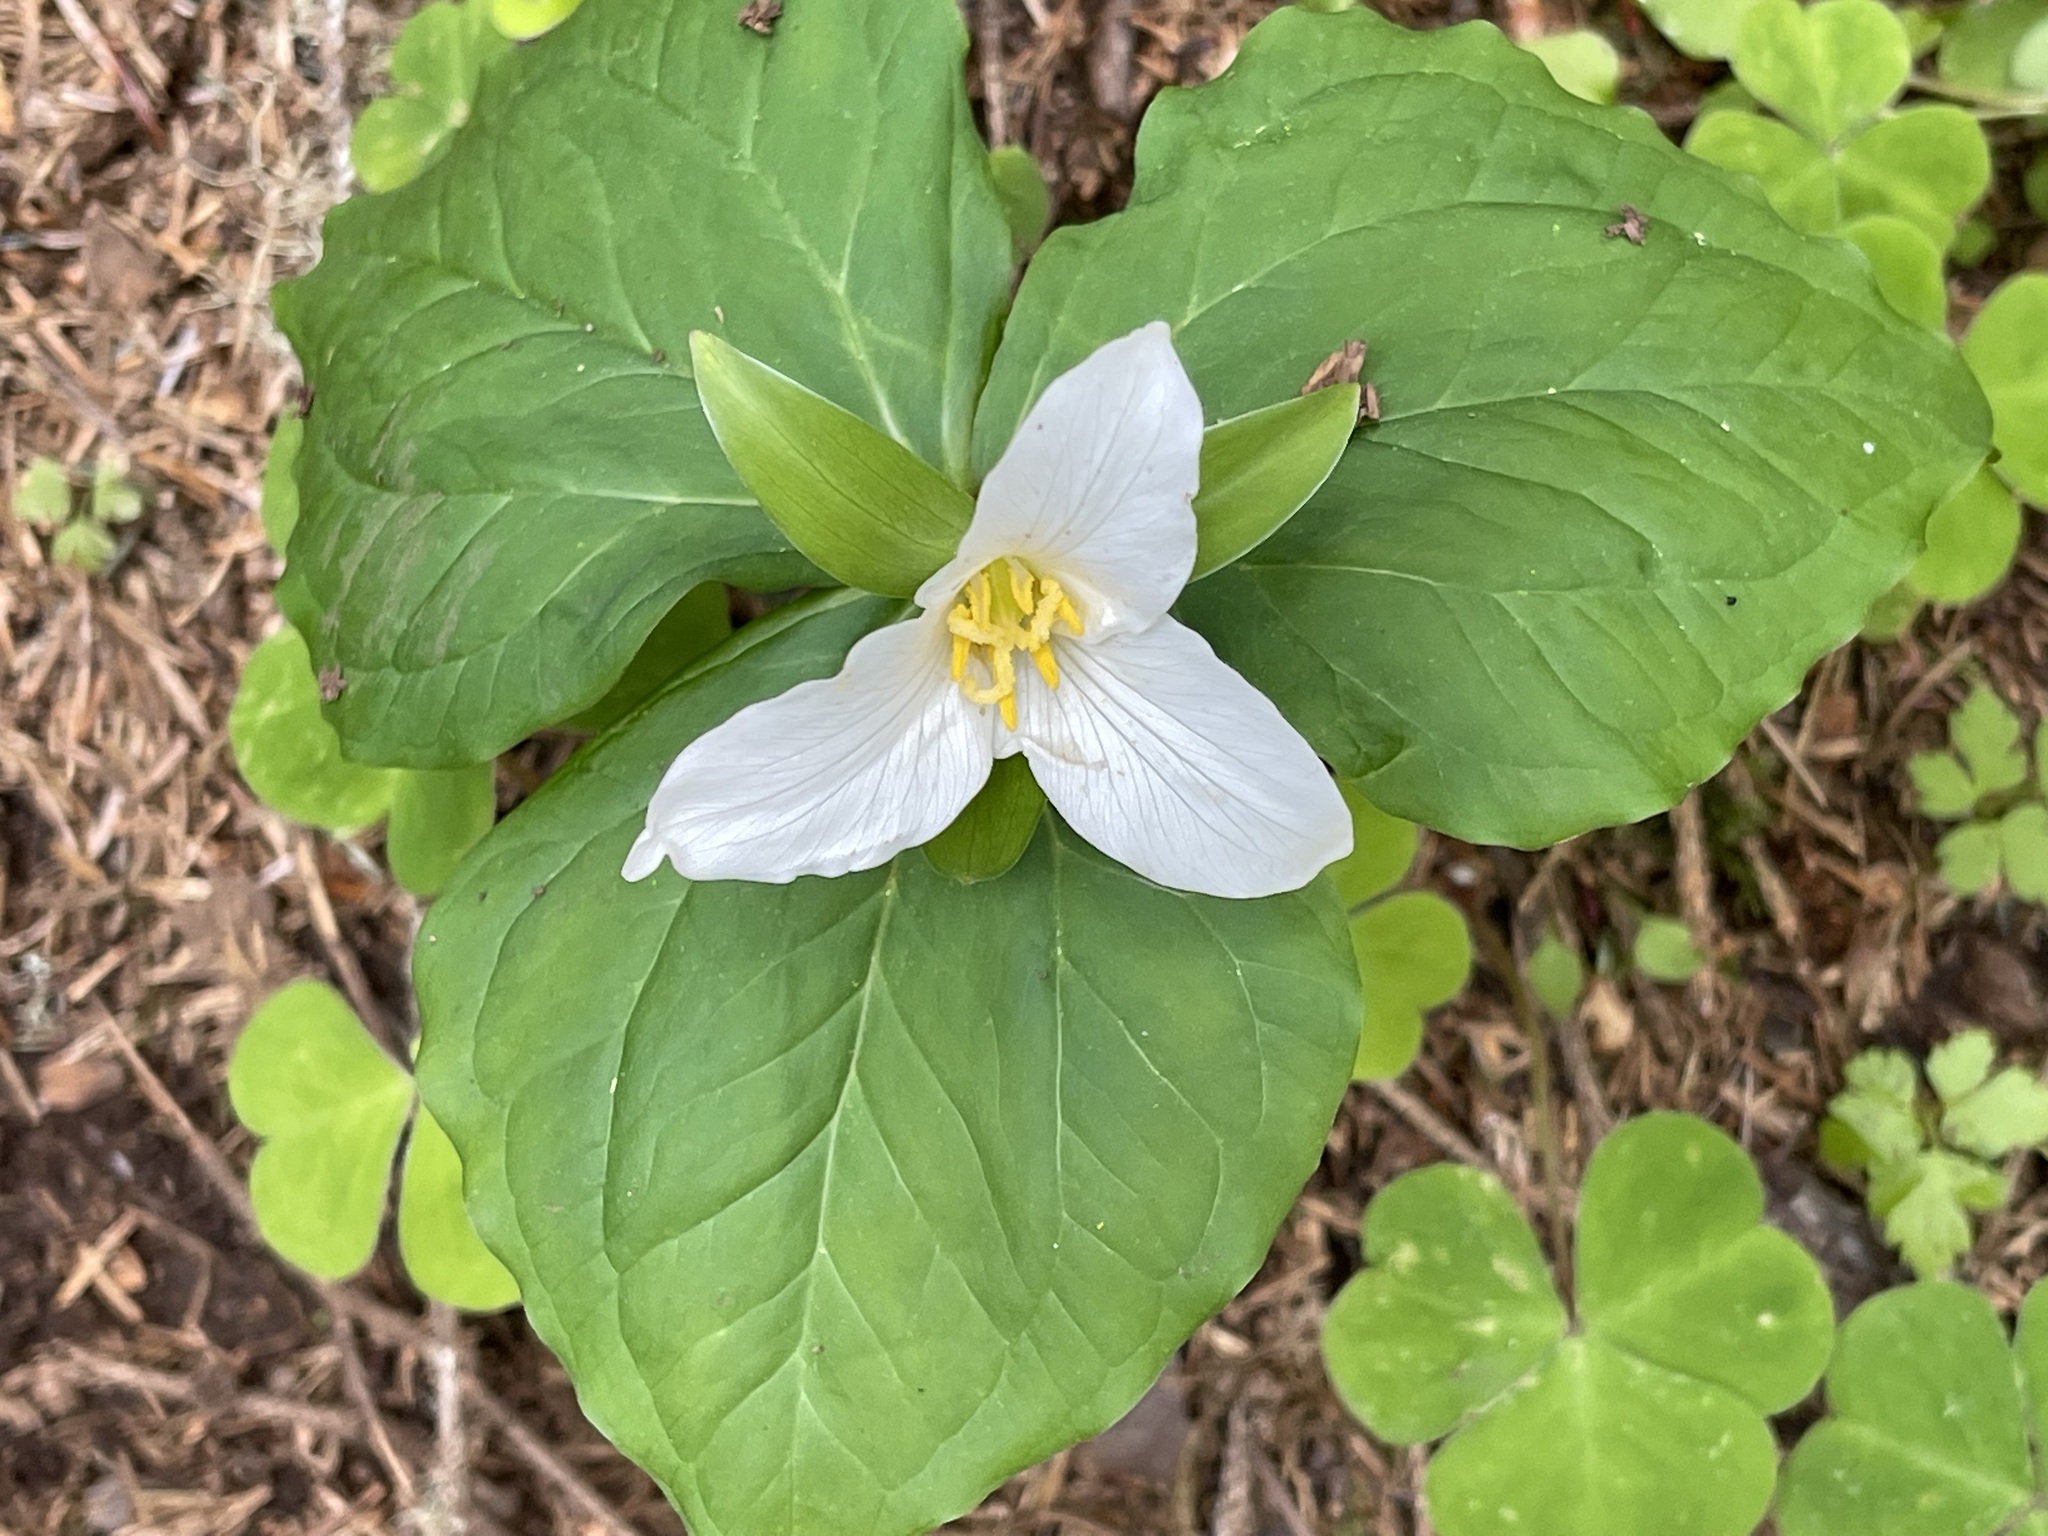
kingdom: Plantae
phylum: Tracheophyta
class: Liliopsida
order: Liliales
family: Melanthiaceae
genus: Trillium
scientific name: Trillium ovatum
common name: Pacific trillium
